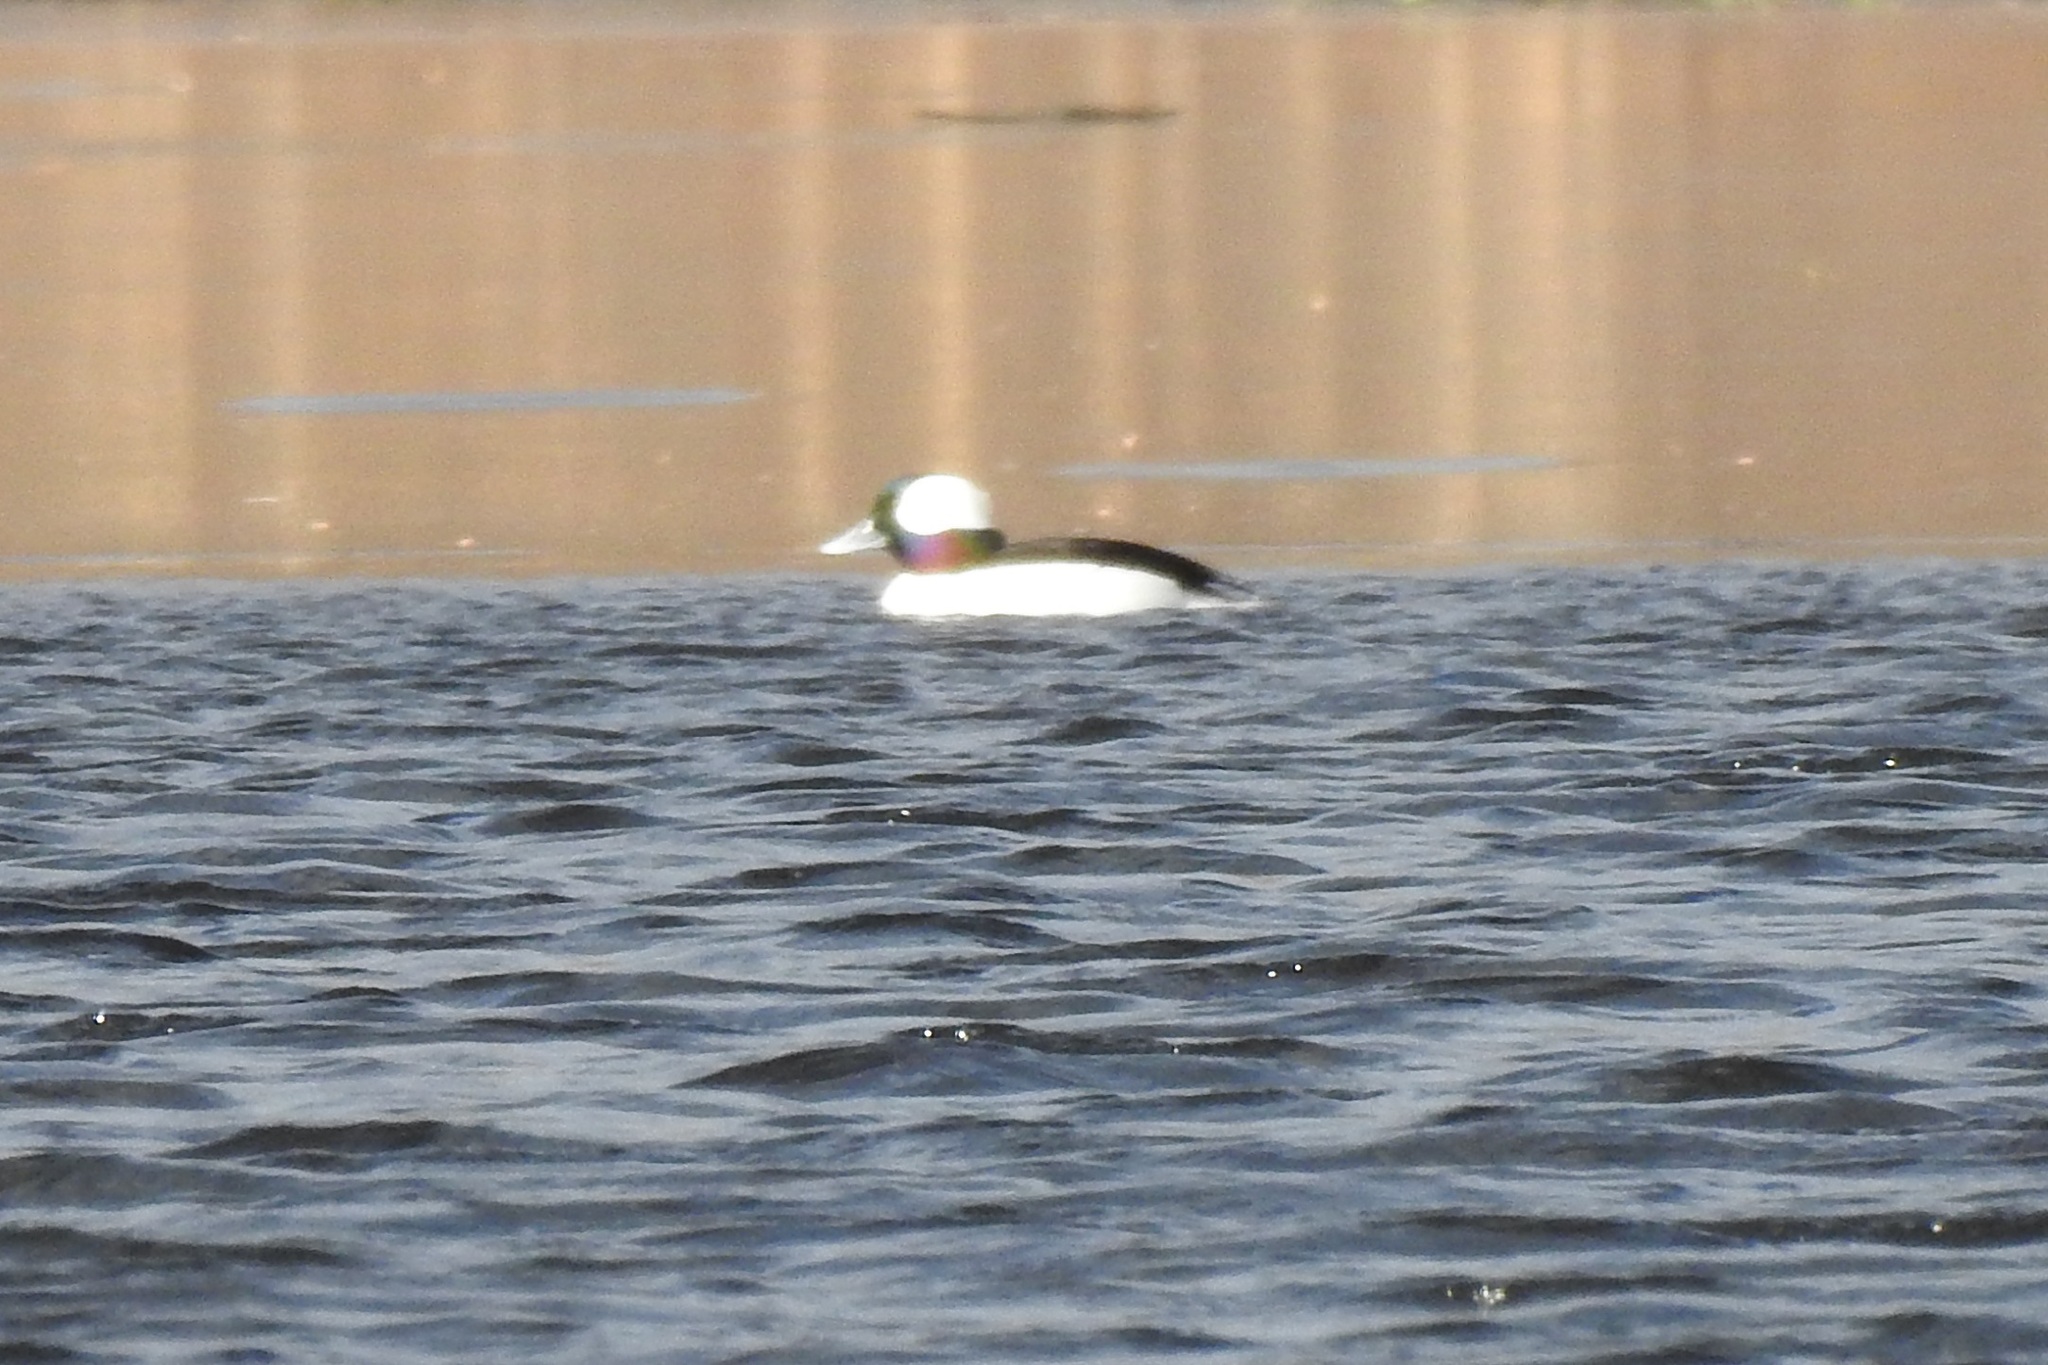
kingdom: Animalia
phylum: Chordata
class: Aves
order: Anseriformes
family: Anatidae
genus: Bucephala
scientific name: Bucephala albeola
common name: Bufflehead
